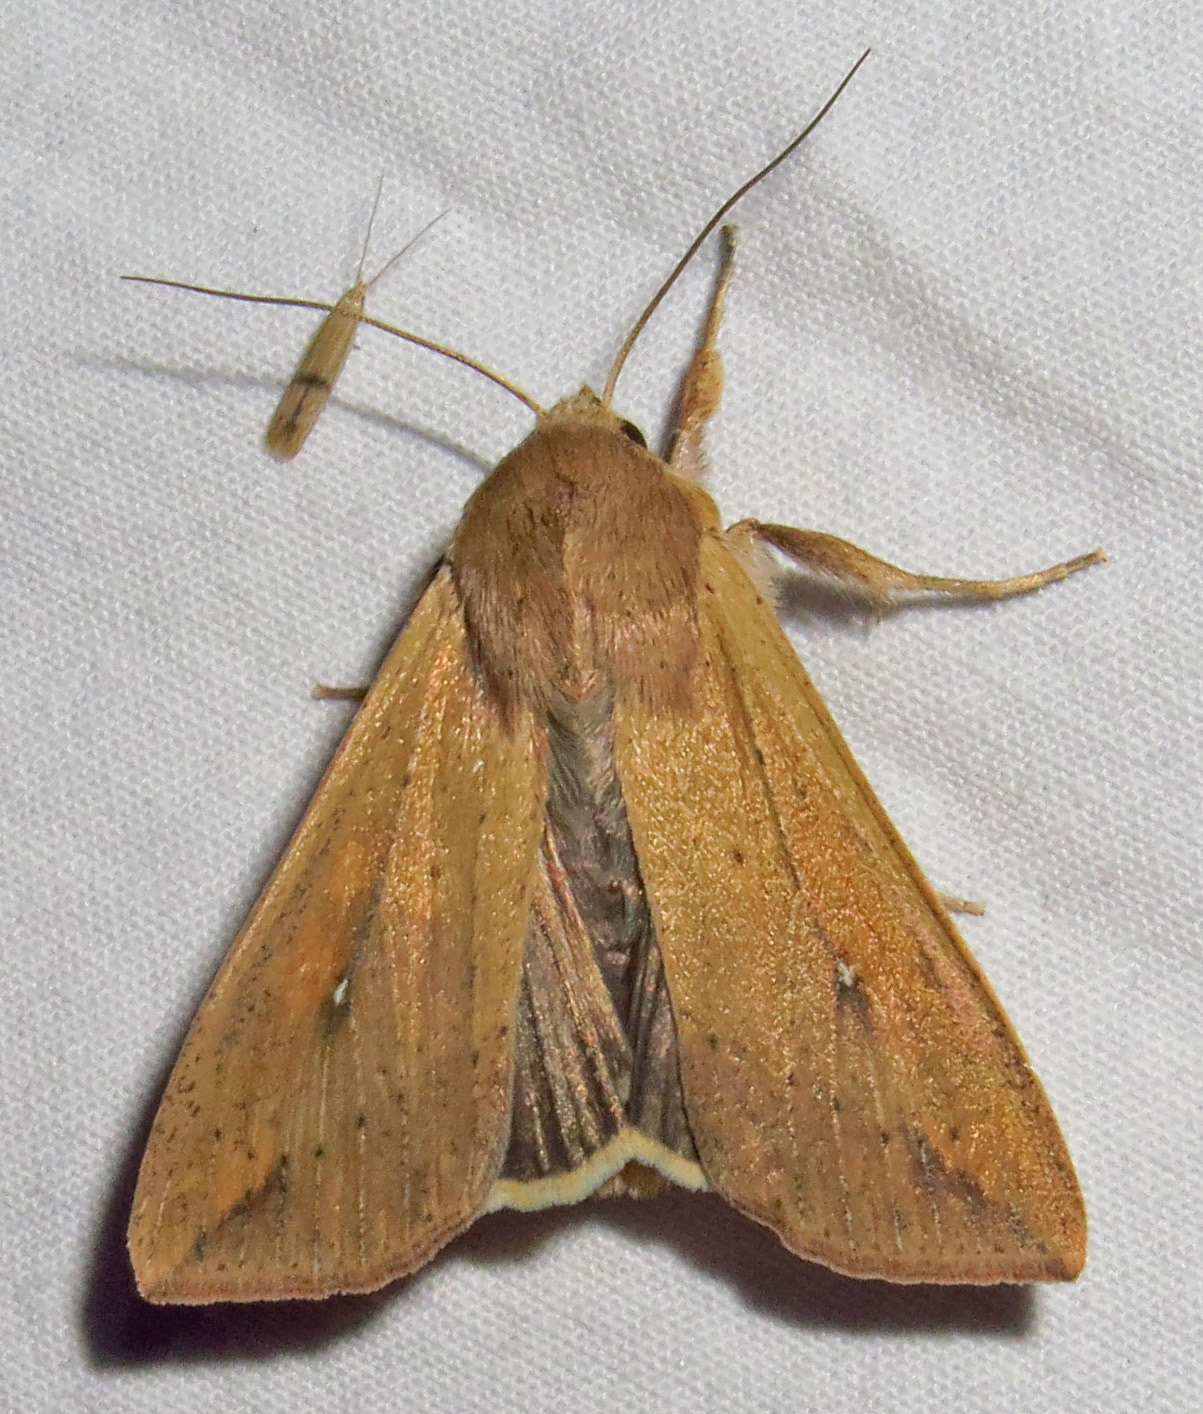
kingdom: Animalia
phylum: Arthropoda
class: Insecta
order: Lepidoptera
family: Noctuidae
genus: Mythimna
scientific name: Mythimna unipuncta
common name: White-speck
